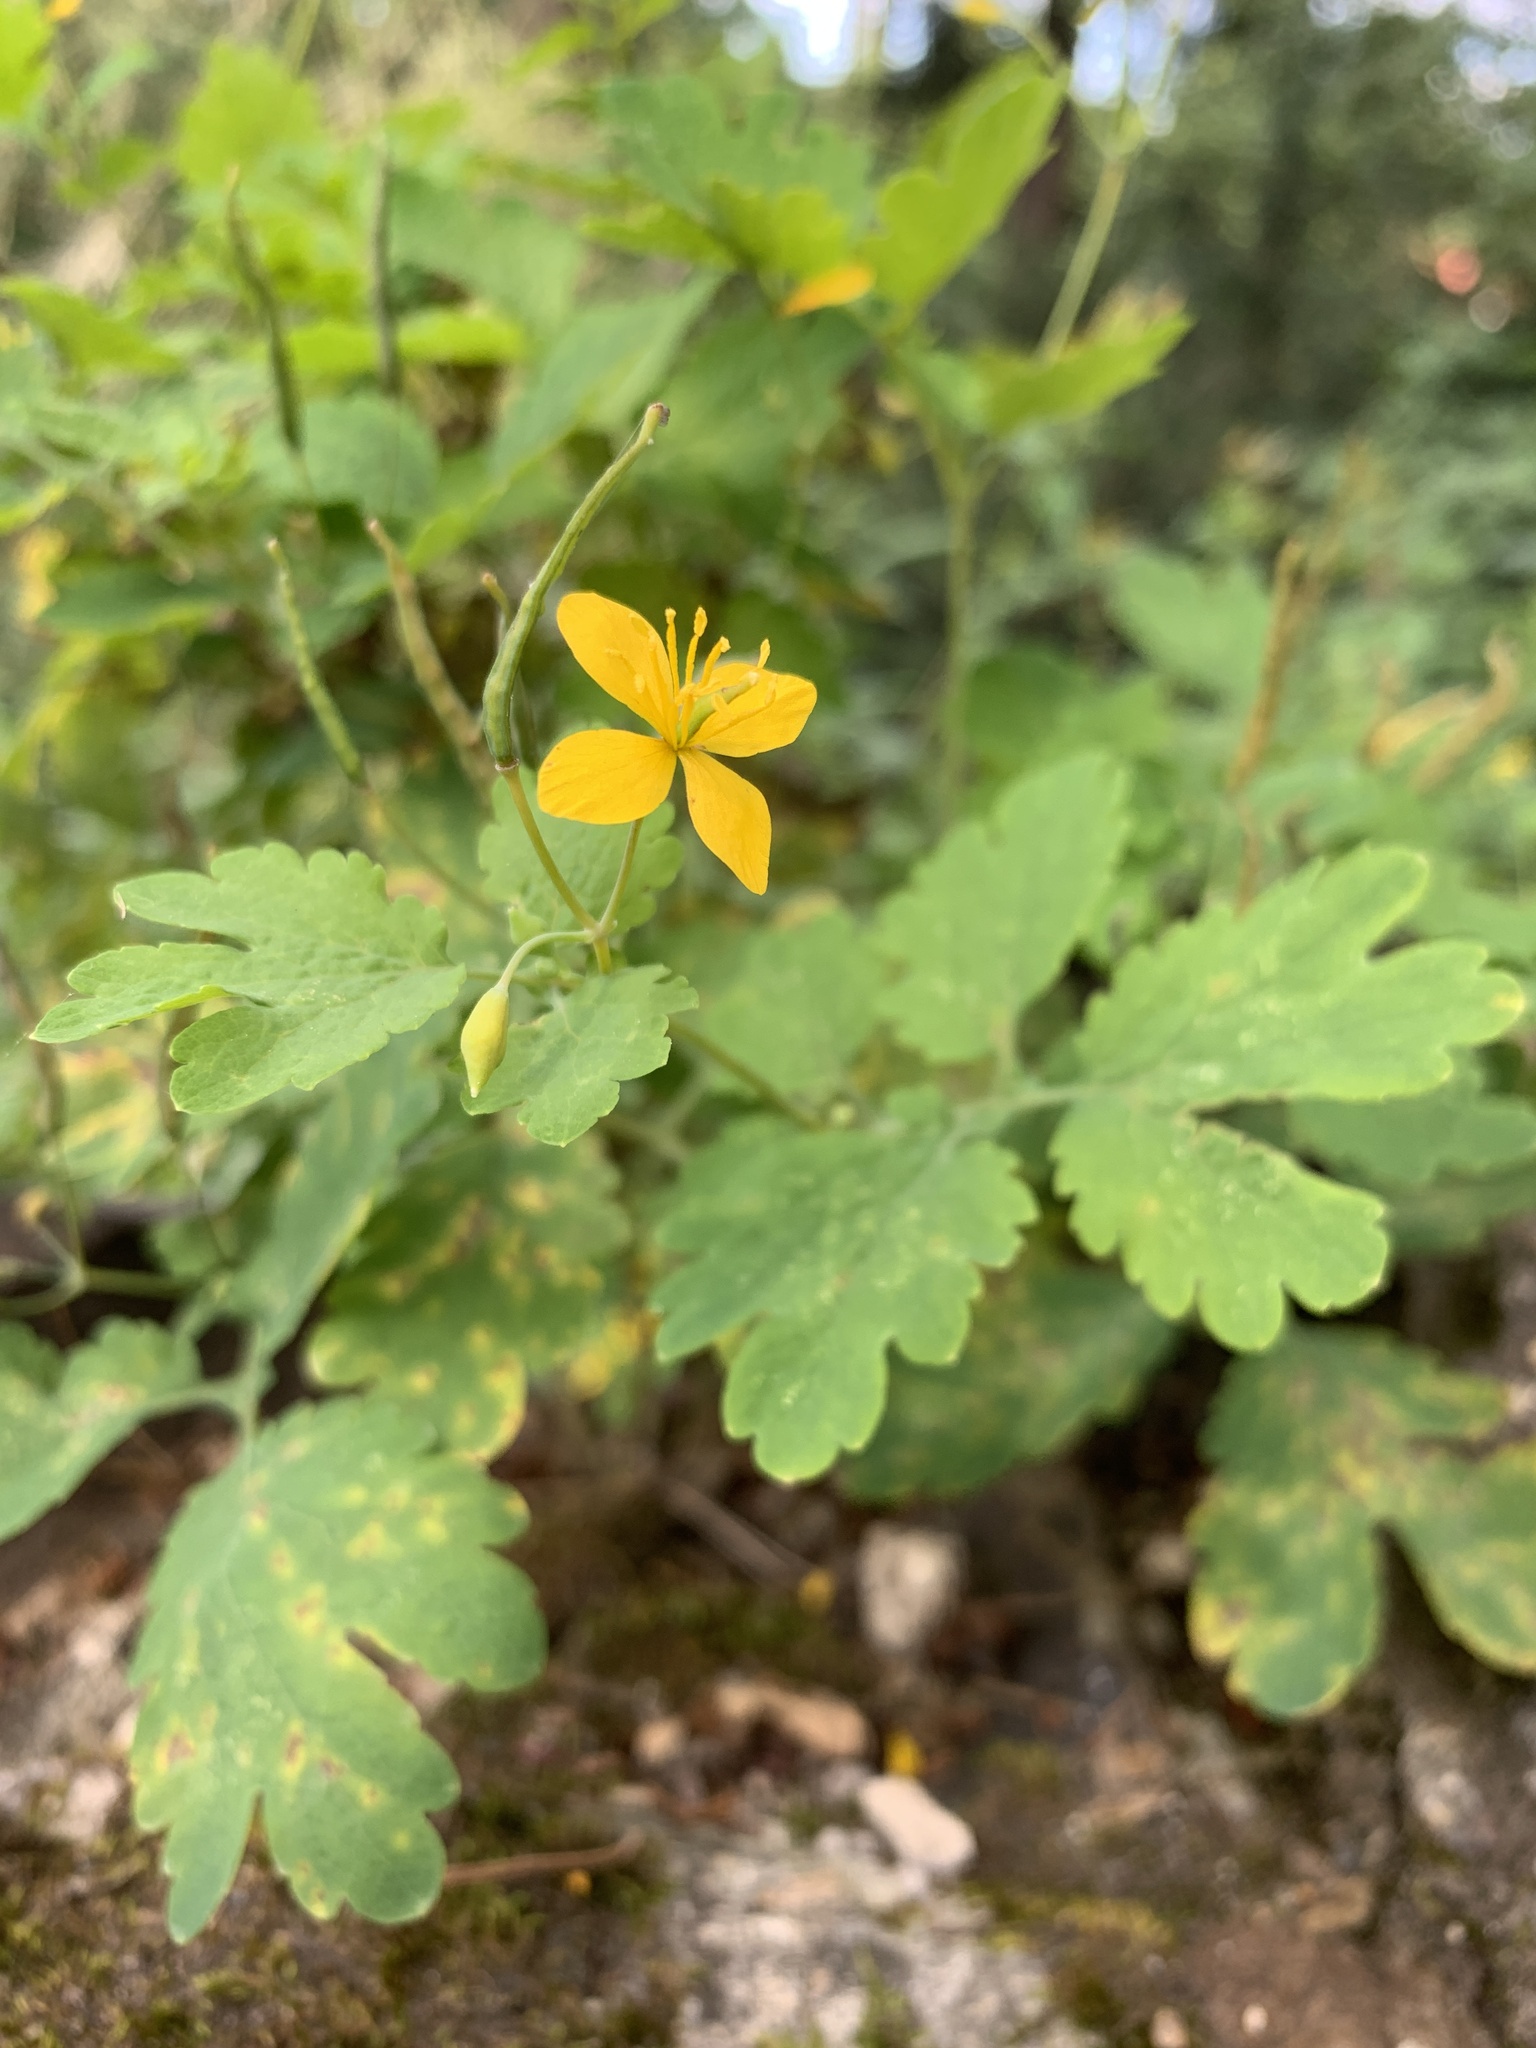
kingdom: Plantae
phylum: Tracheophyta
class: Magnoliopsida
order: Ranunculales
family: Papaveraceae
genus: Chelidonium
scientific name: Chelidonium majus
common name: Greater celandine
